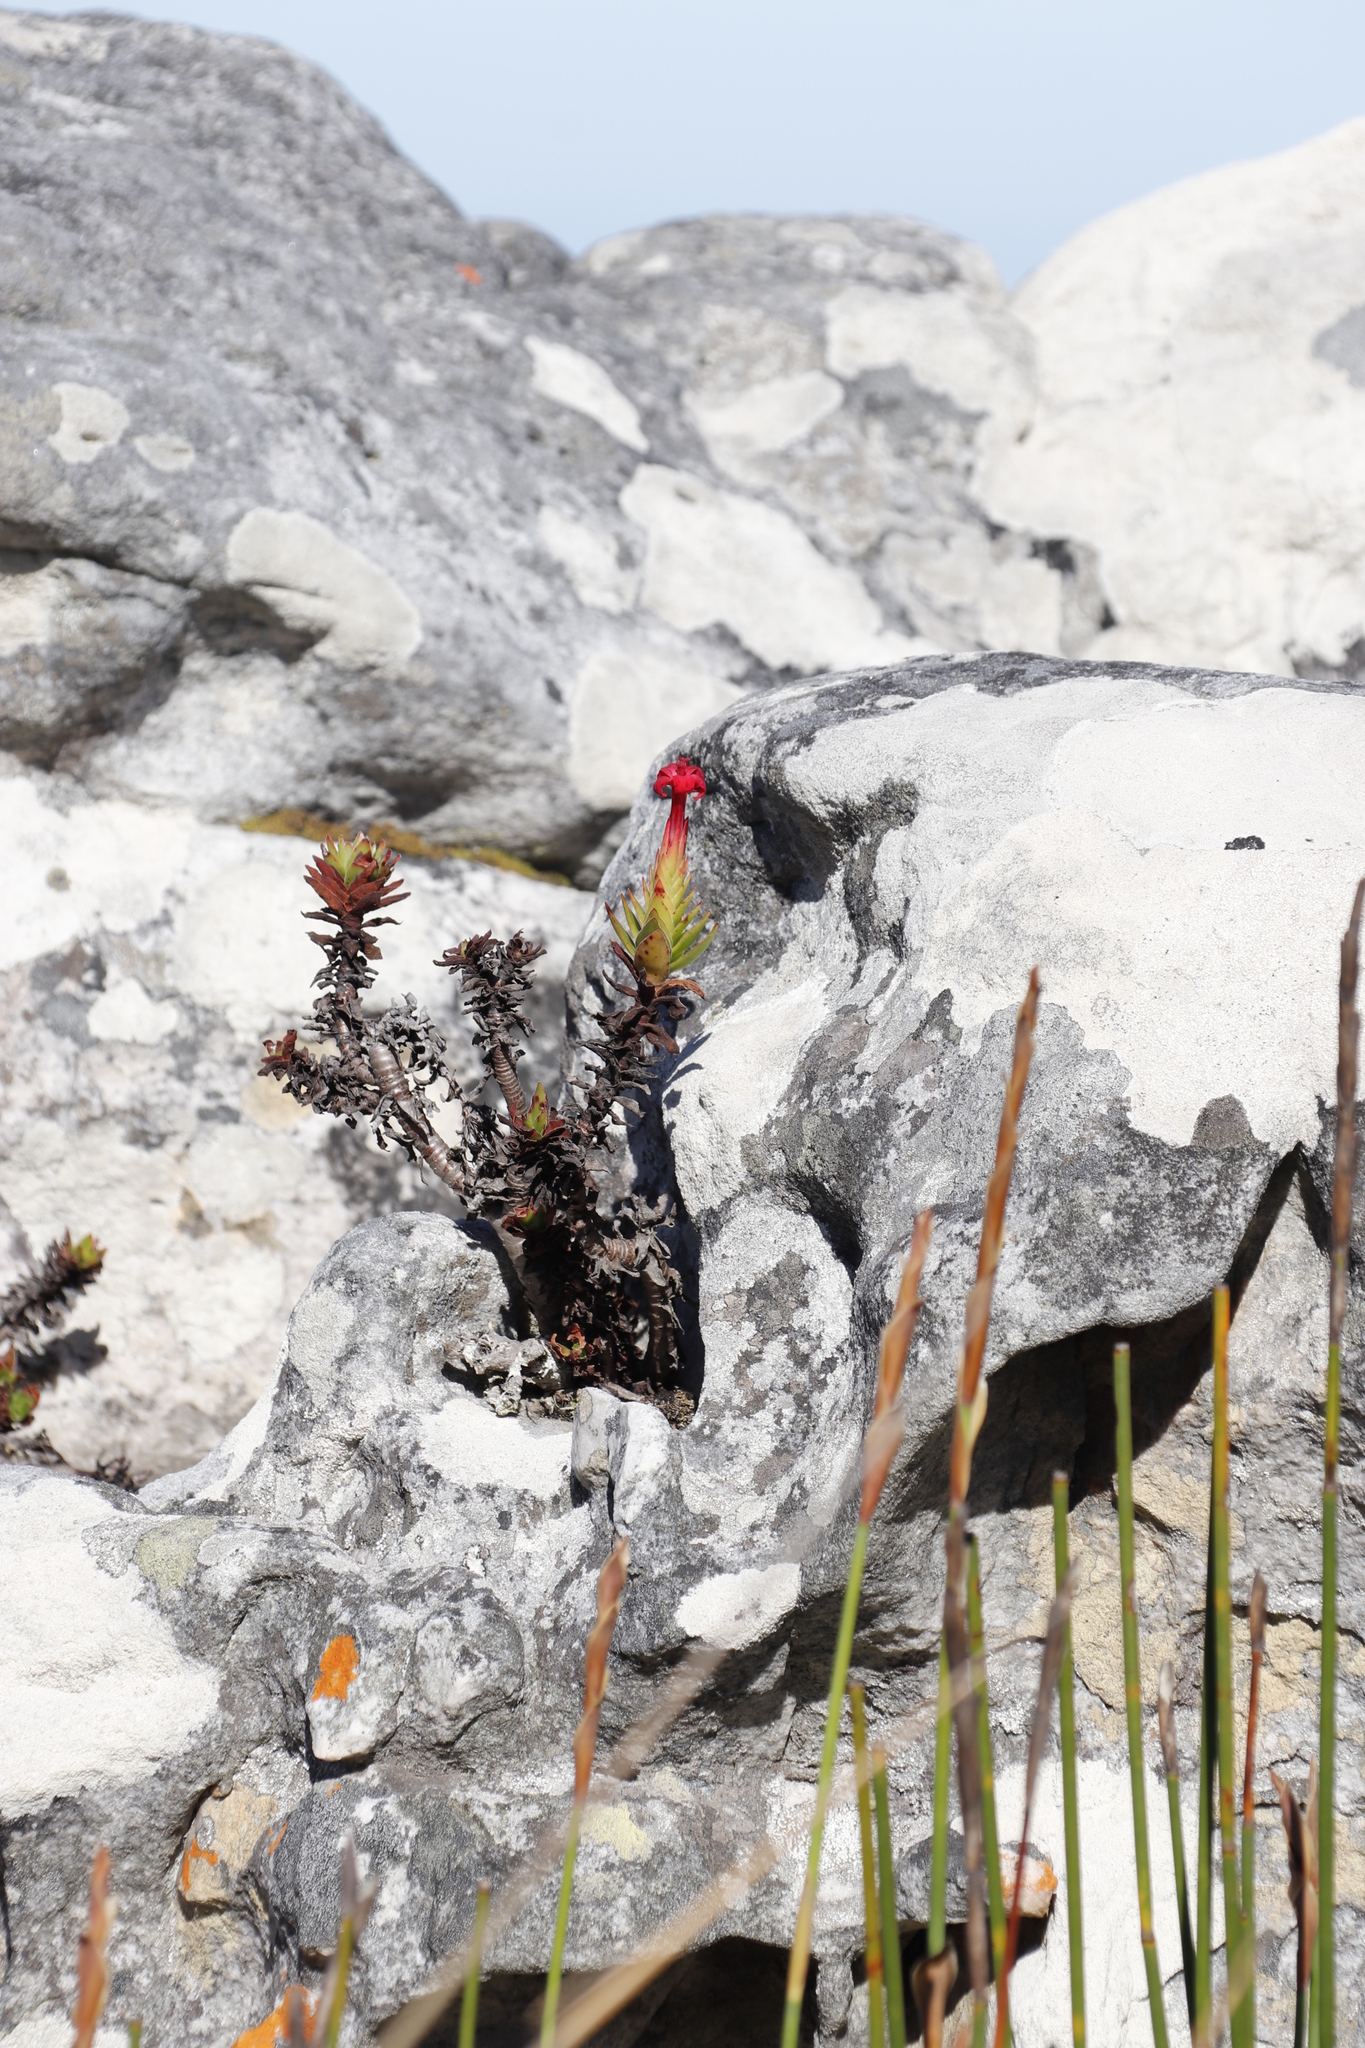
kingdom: Plantae
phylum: Tracheophyta
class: Magnoliopsida
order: Saxifragales
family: Crassulaceae
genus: Crassula
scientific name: Crassula coccinea
